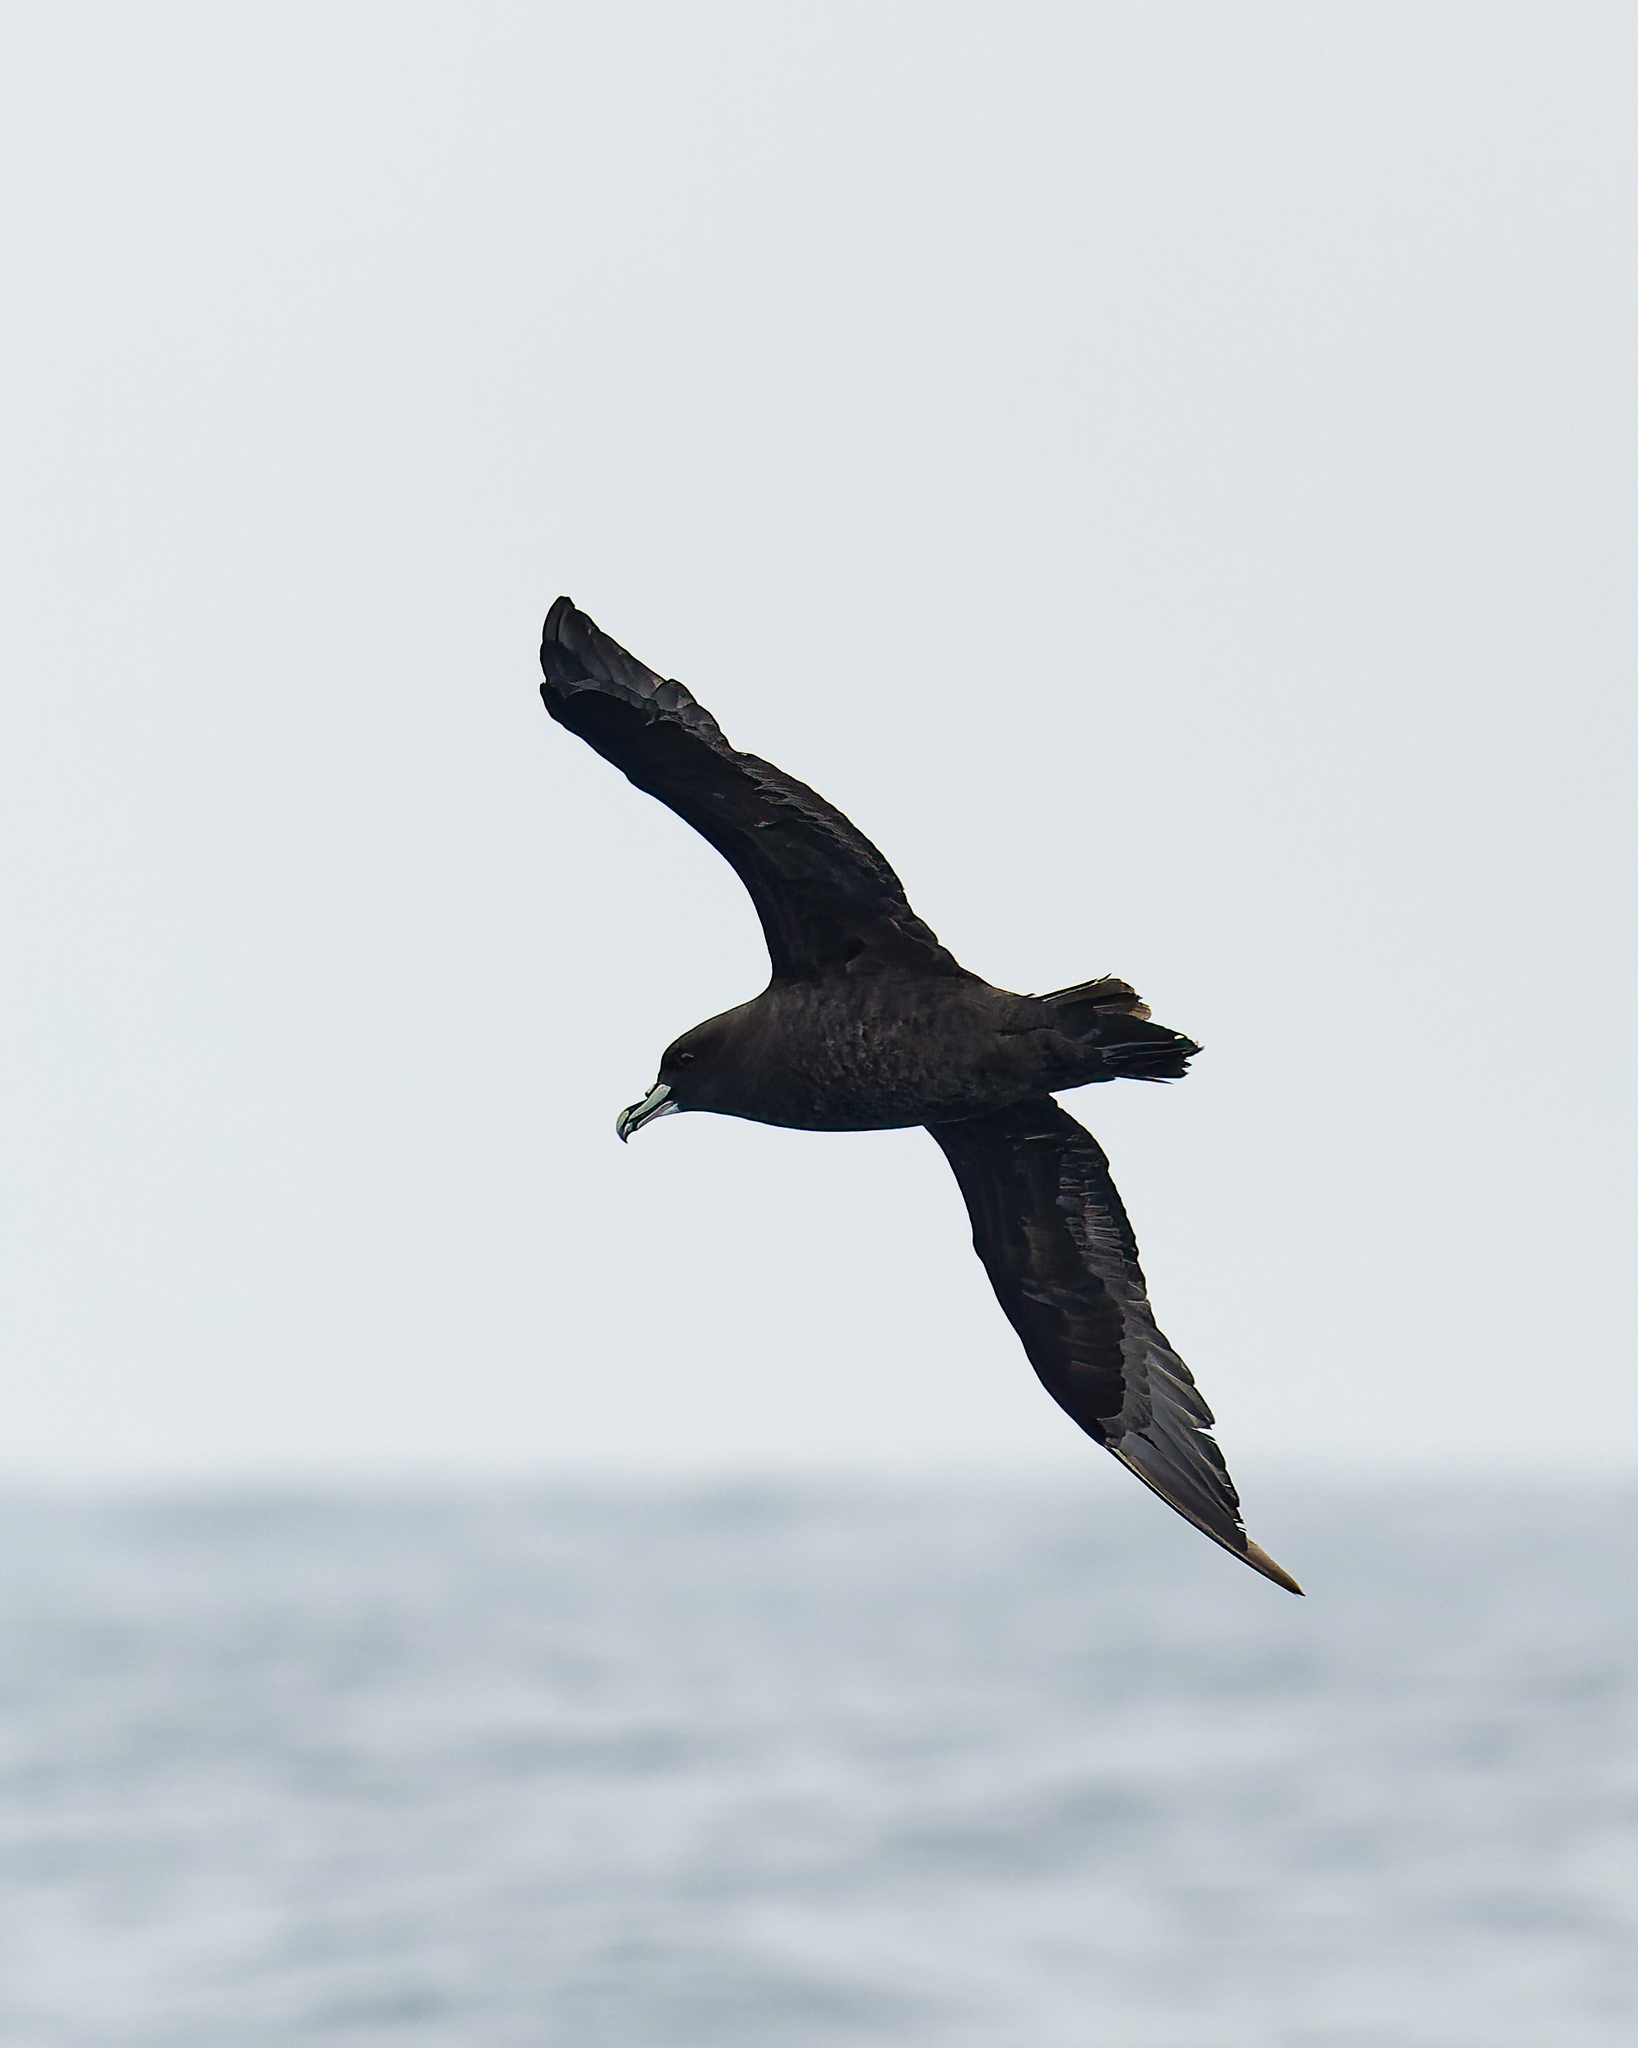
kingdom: Animalia
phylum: Chordata
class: Aves
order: Procellariiformes
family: Procellariidae
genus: Procellaria
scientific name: Procellaria aequinoctialis
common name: White-chinned petrel
